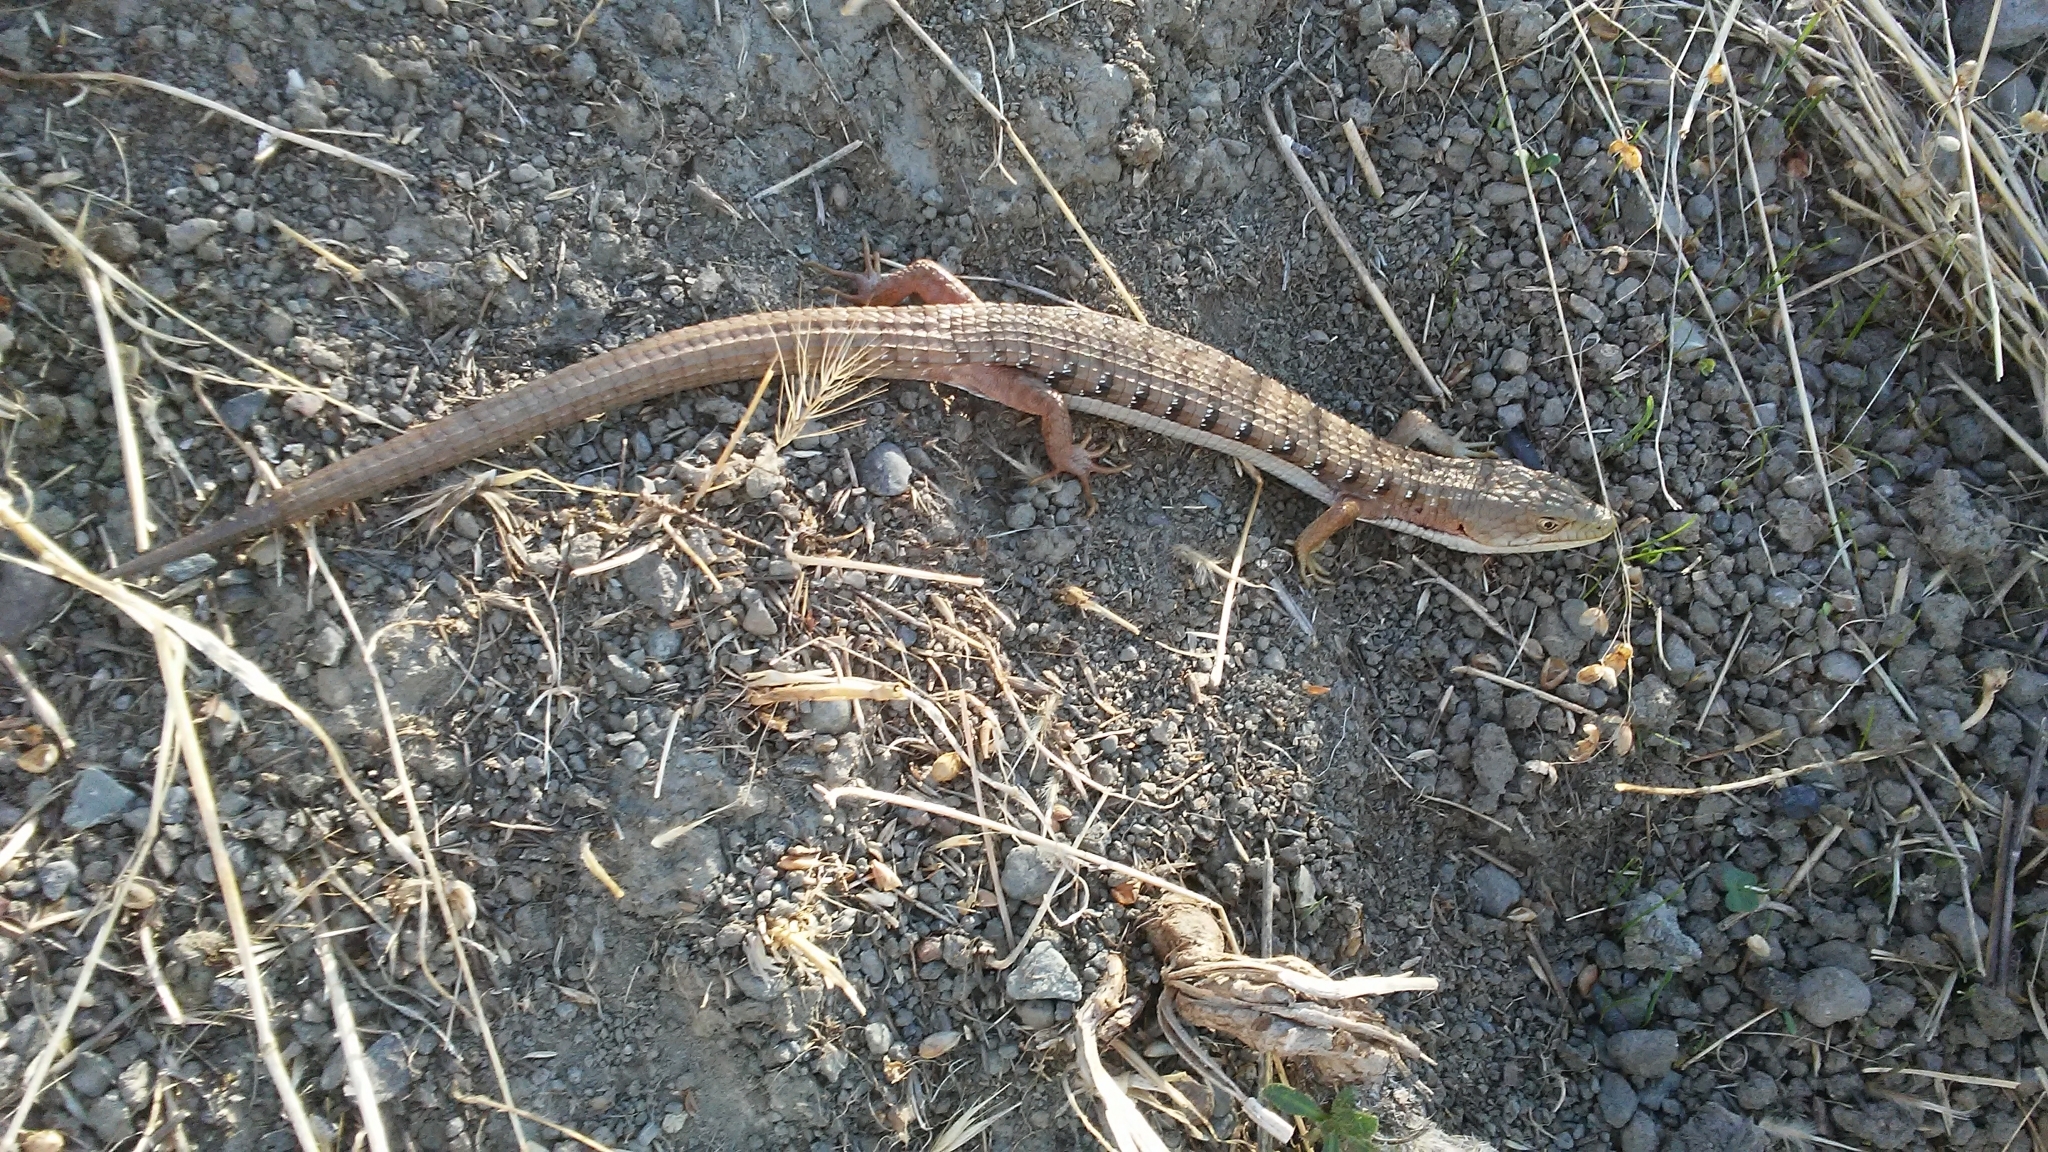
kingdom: Animalia
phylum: Chordata
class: Squamata
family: Anguidae
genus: Elgaria
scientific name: Elgaria multicarinata
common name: Southern alligator lizard
